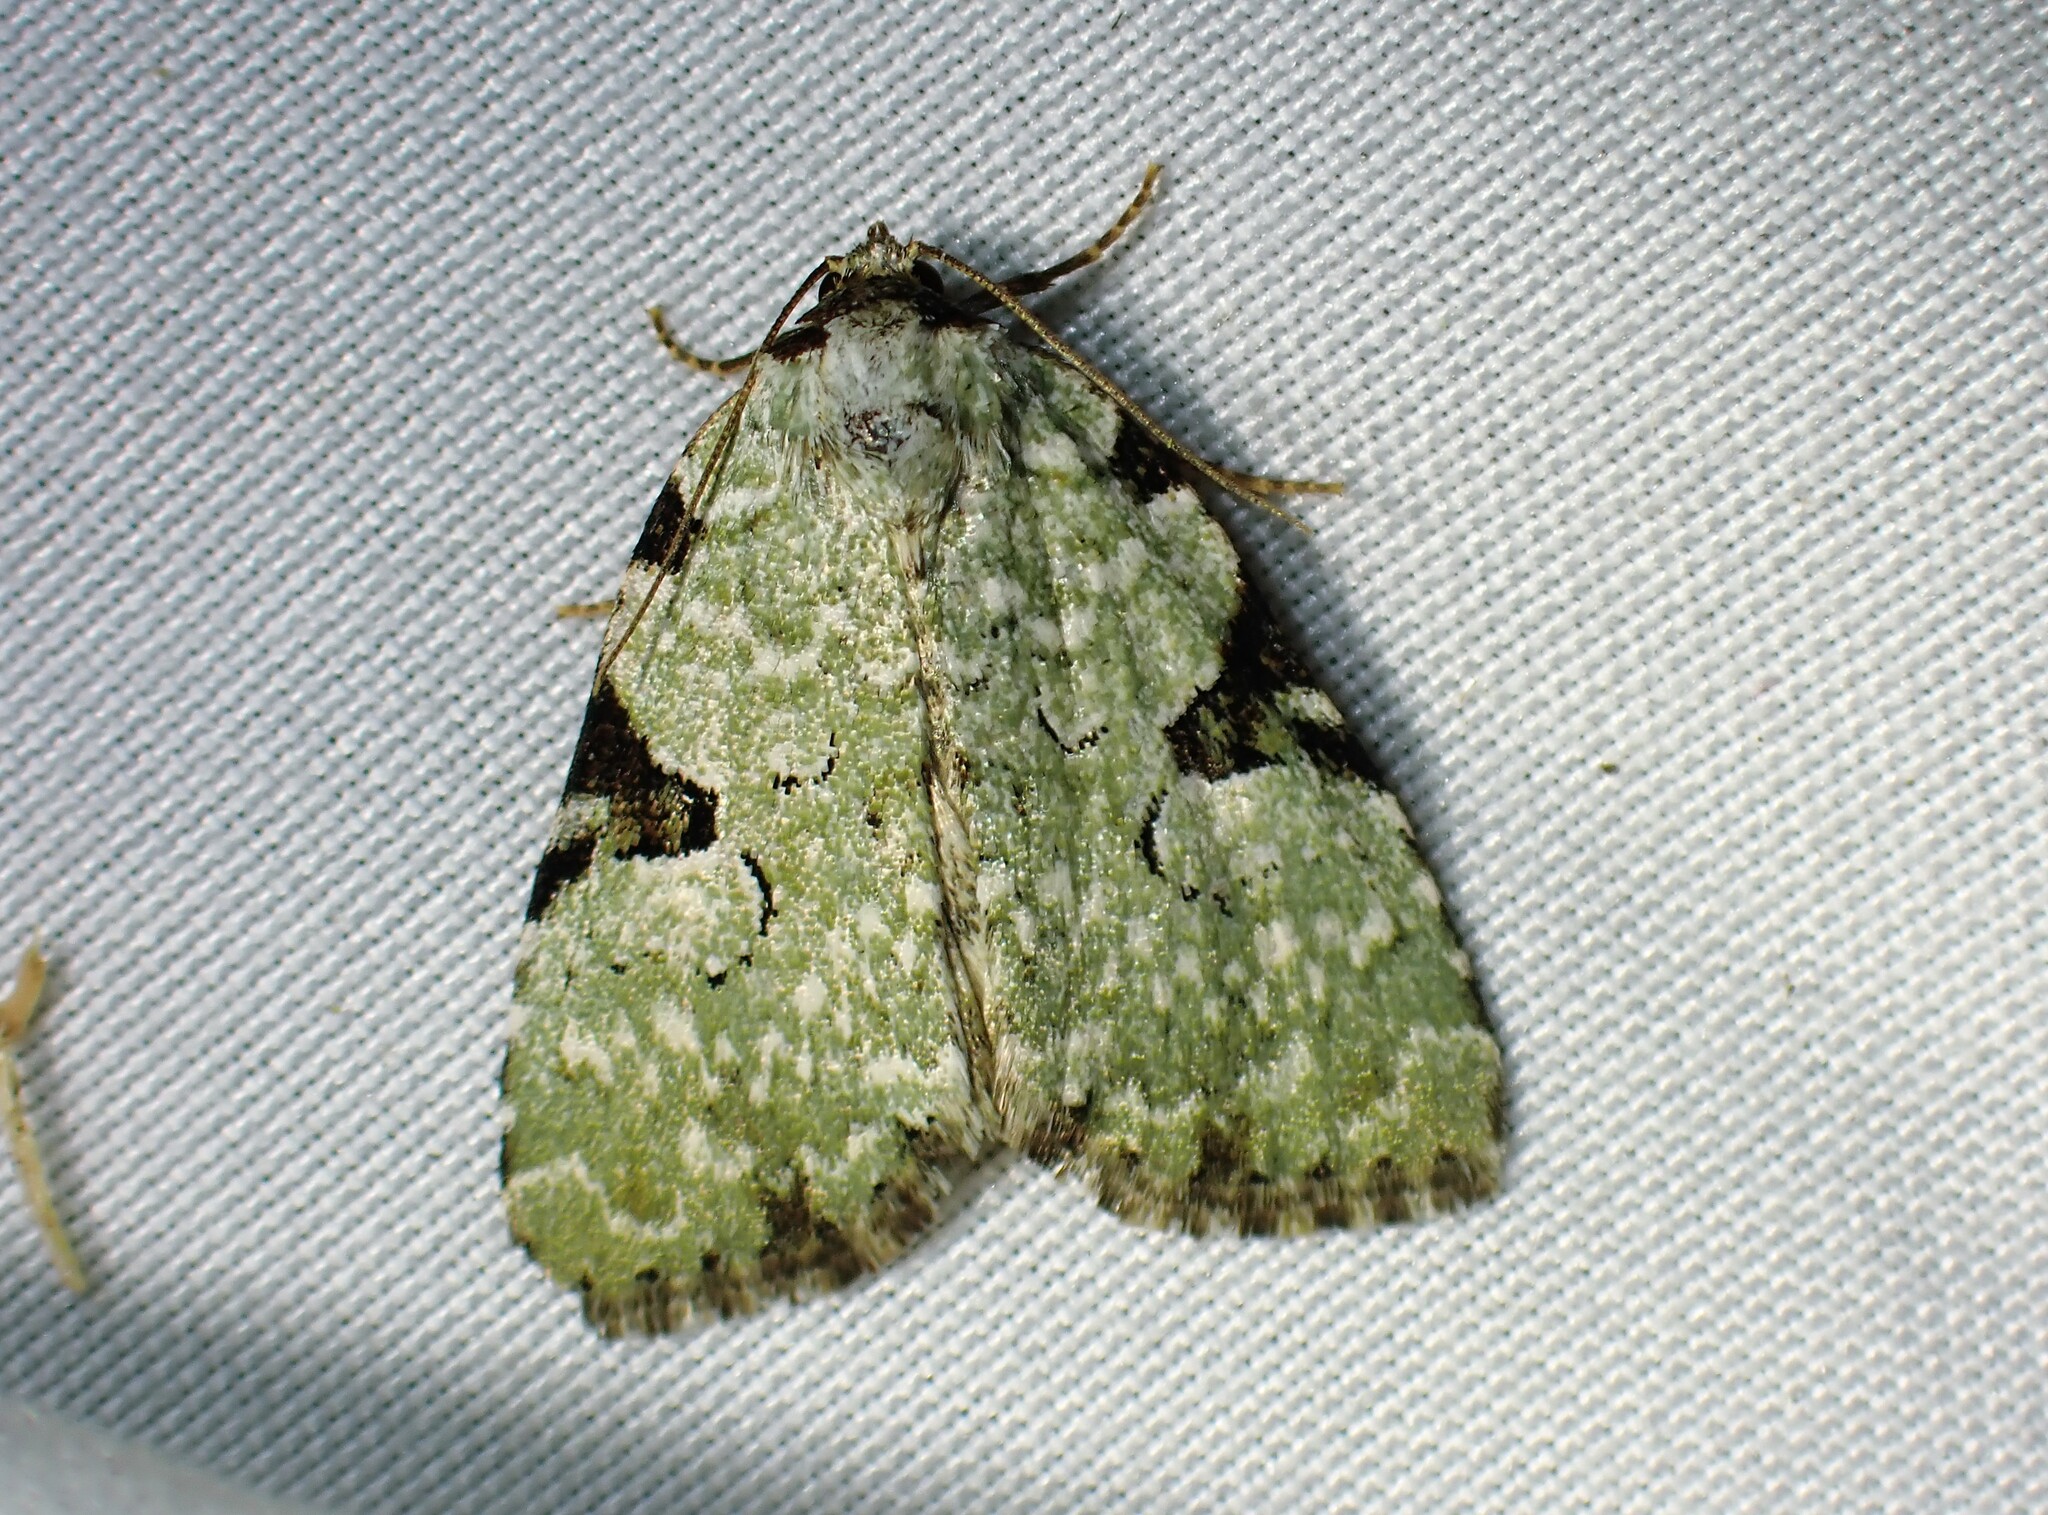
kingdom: Animalia
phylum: Arthropoda
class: Insecta
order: Lepidoptera
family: Noctuidae
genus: Leuconycta
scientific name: Leuconycta diphteroides
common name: Green leuconycta moth
